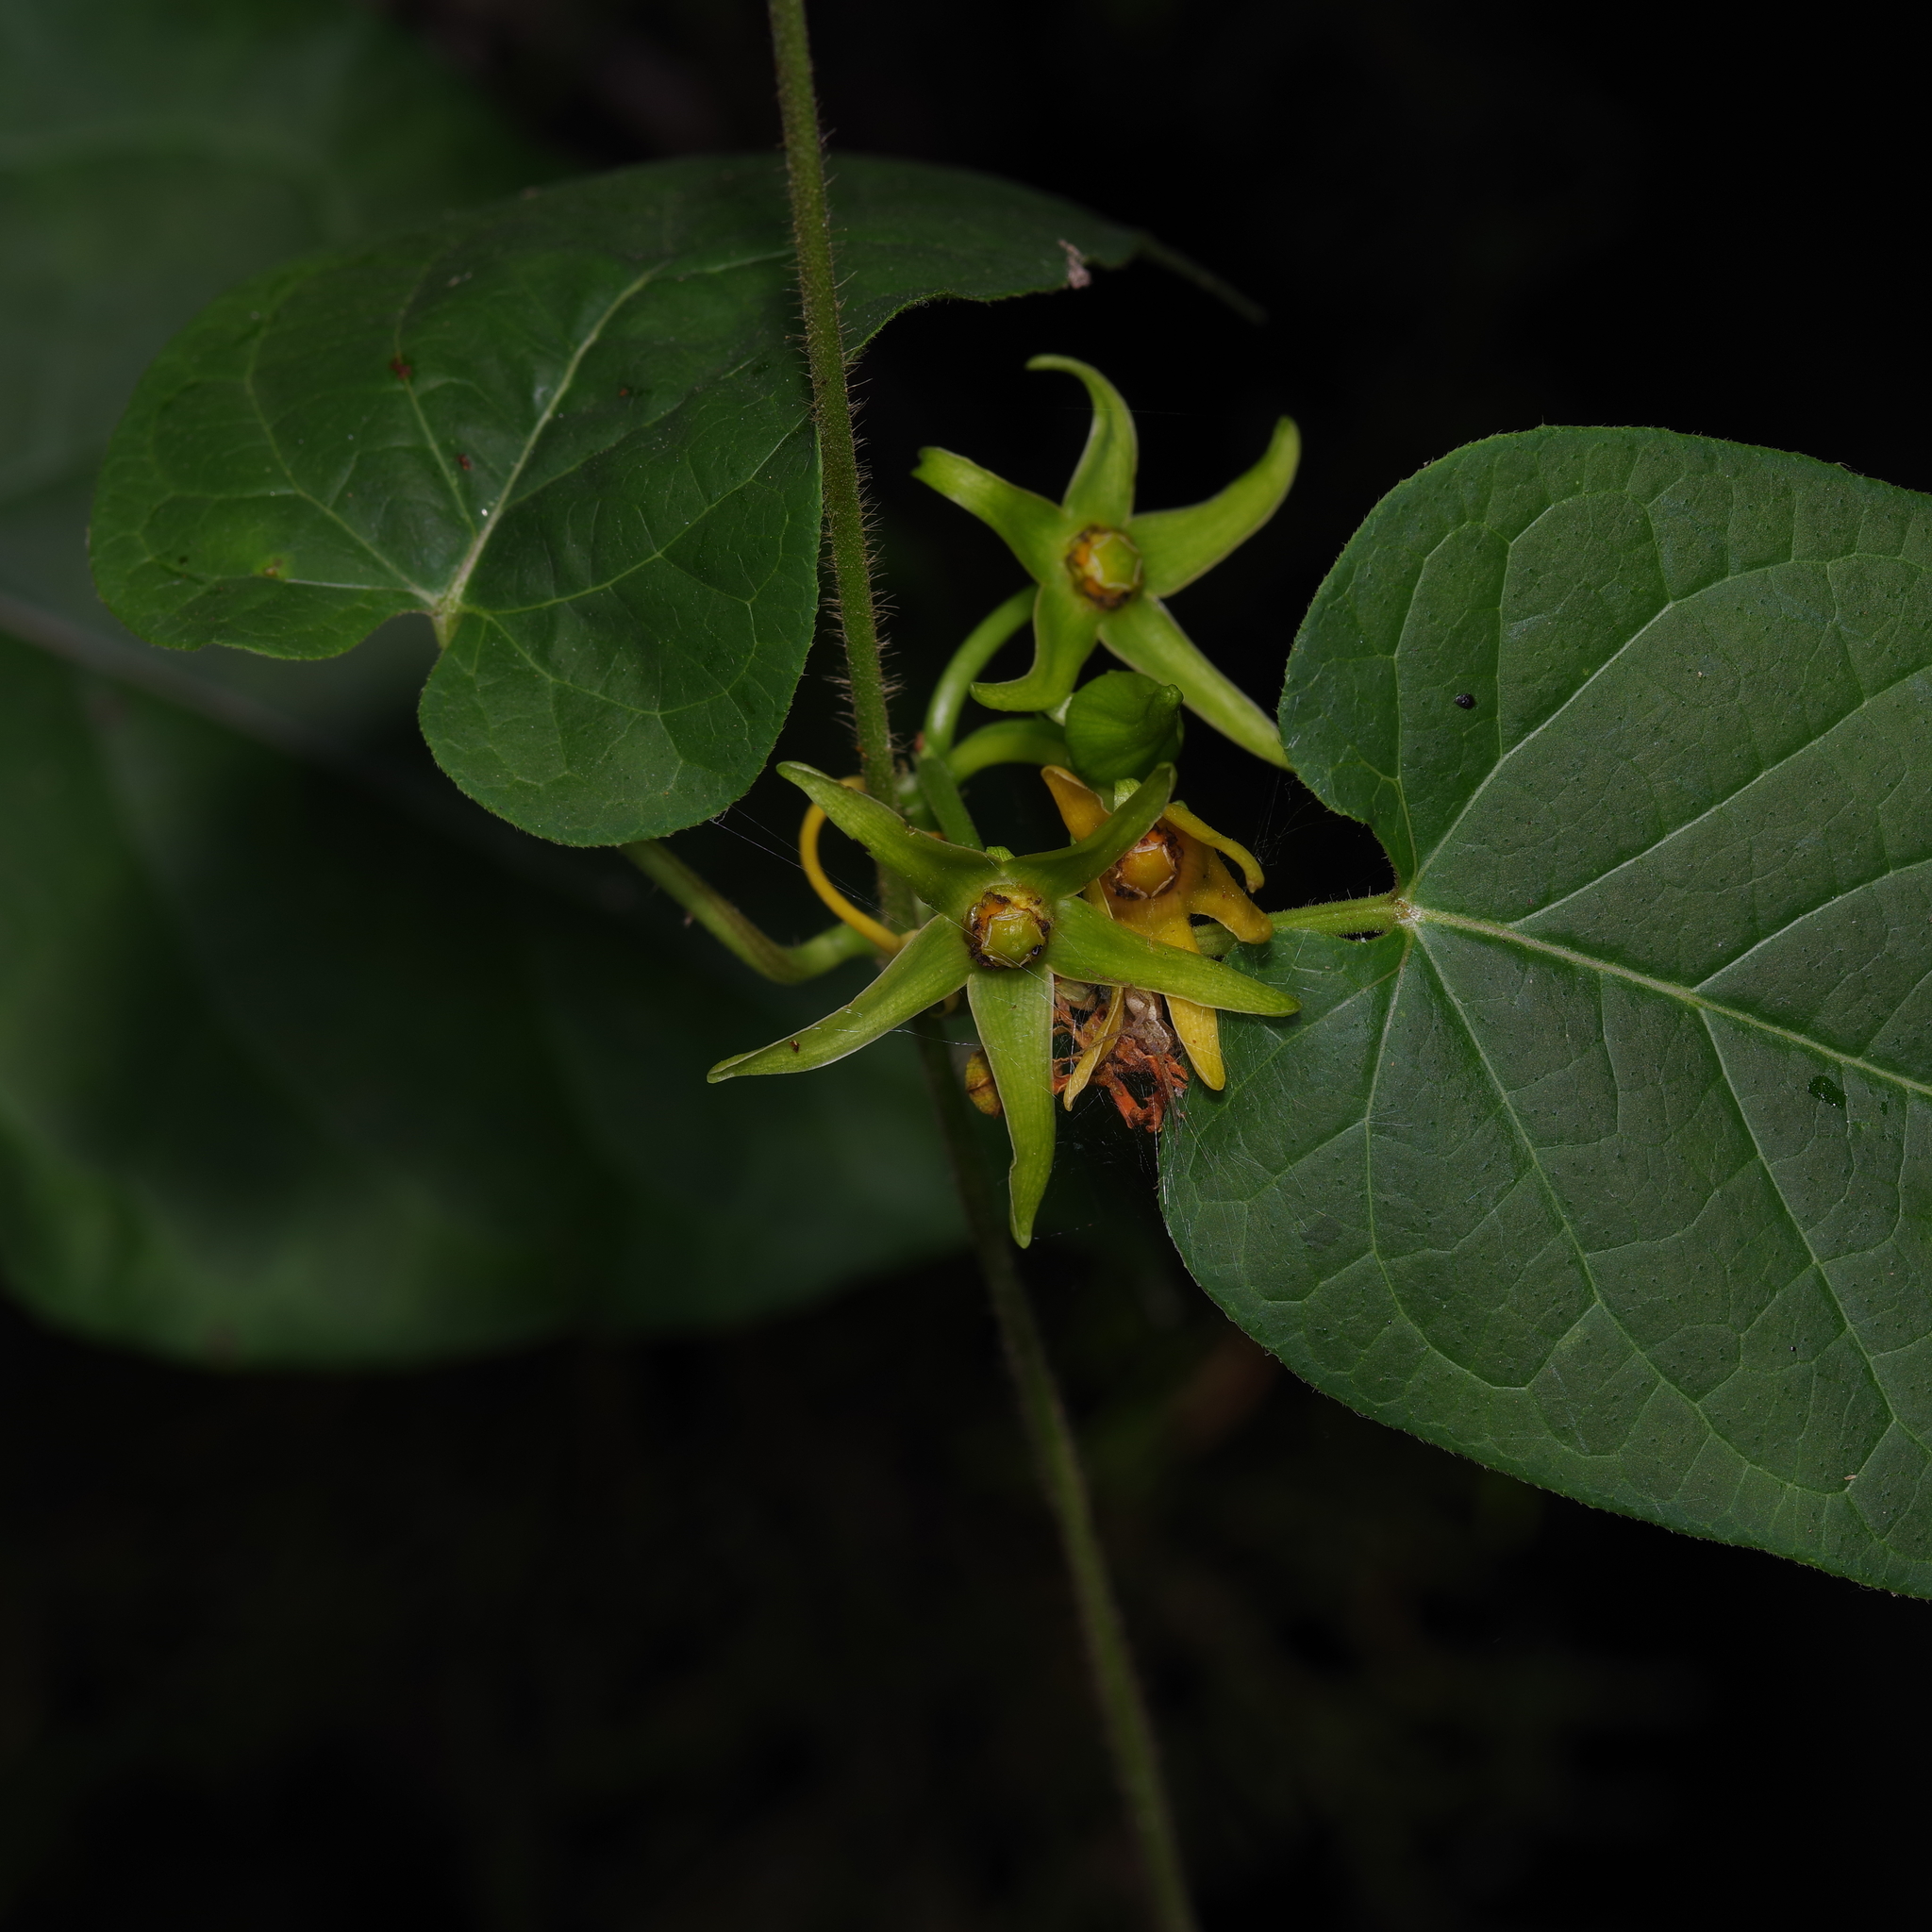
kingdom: Plantae
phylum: Tracheophyta
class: Magnoliopsida
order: Gentianales
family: Apocynaceae
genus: Gonolobus
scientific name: Gonolobus suberosus
